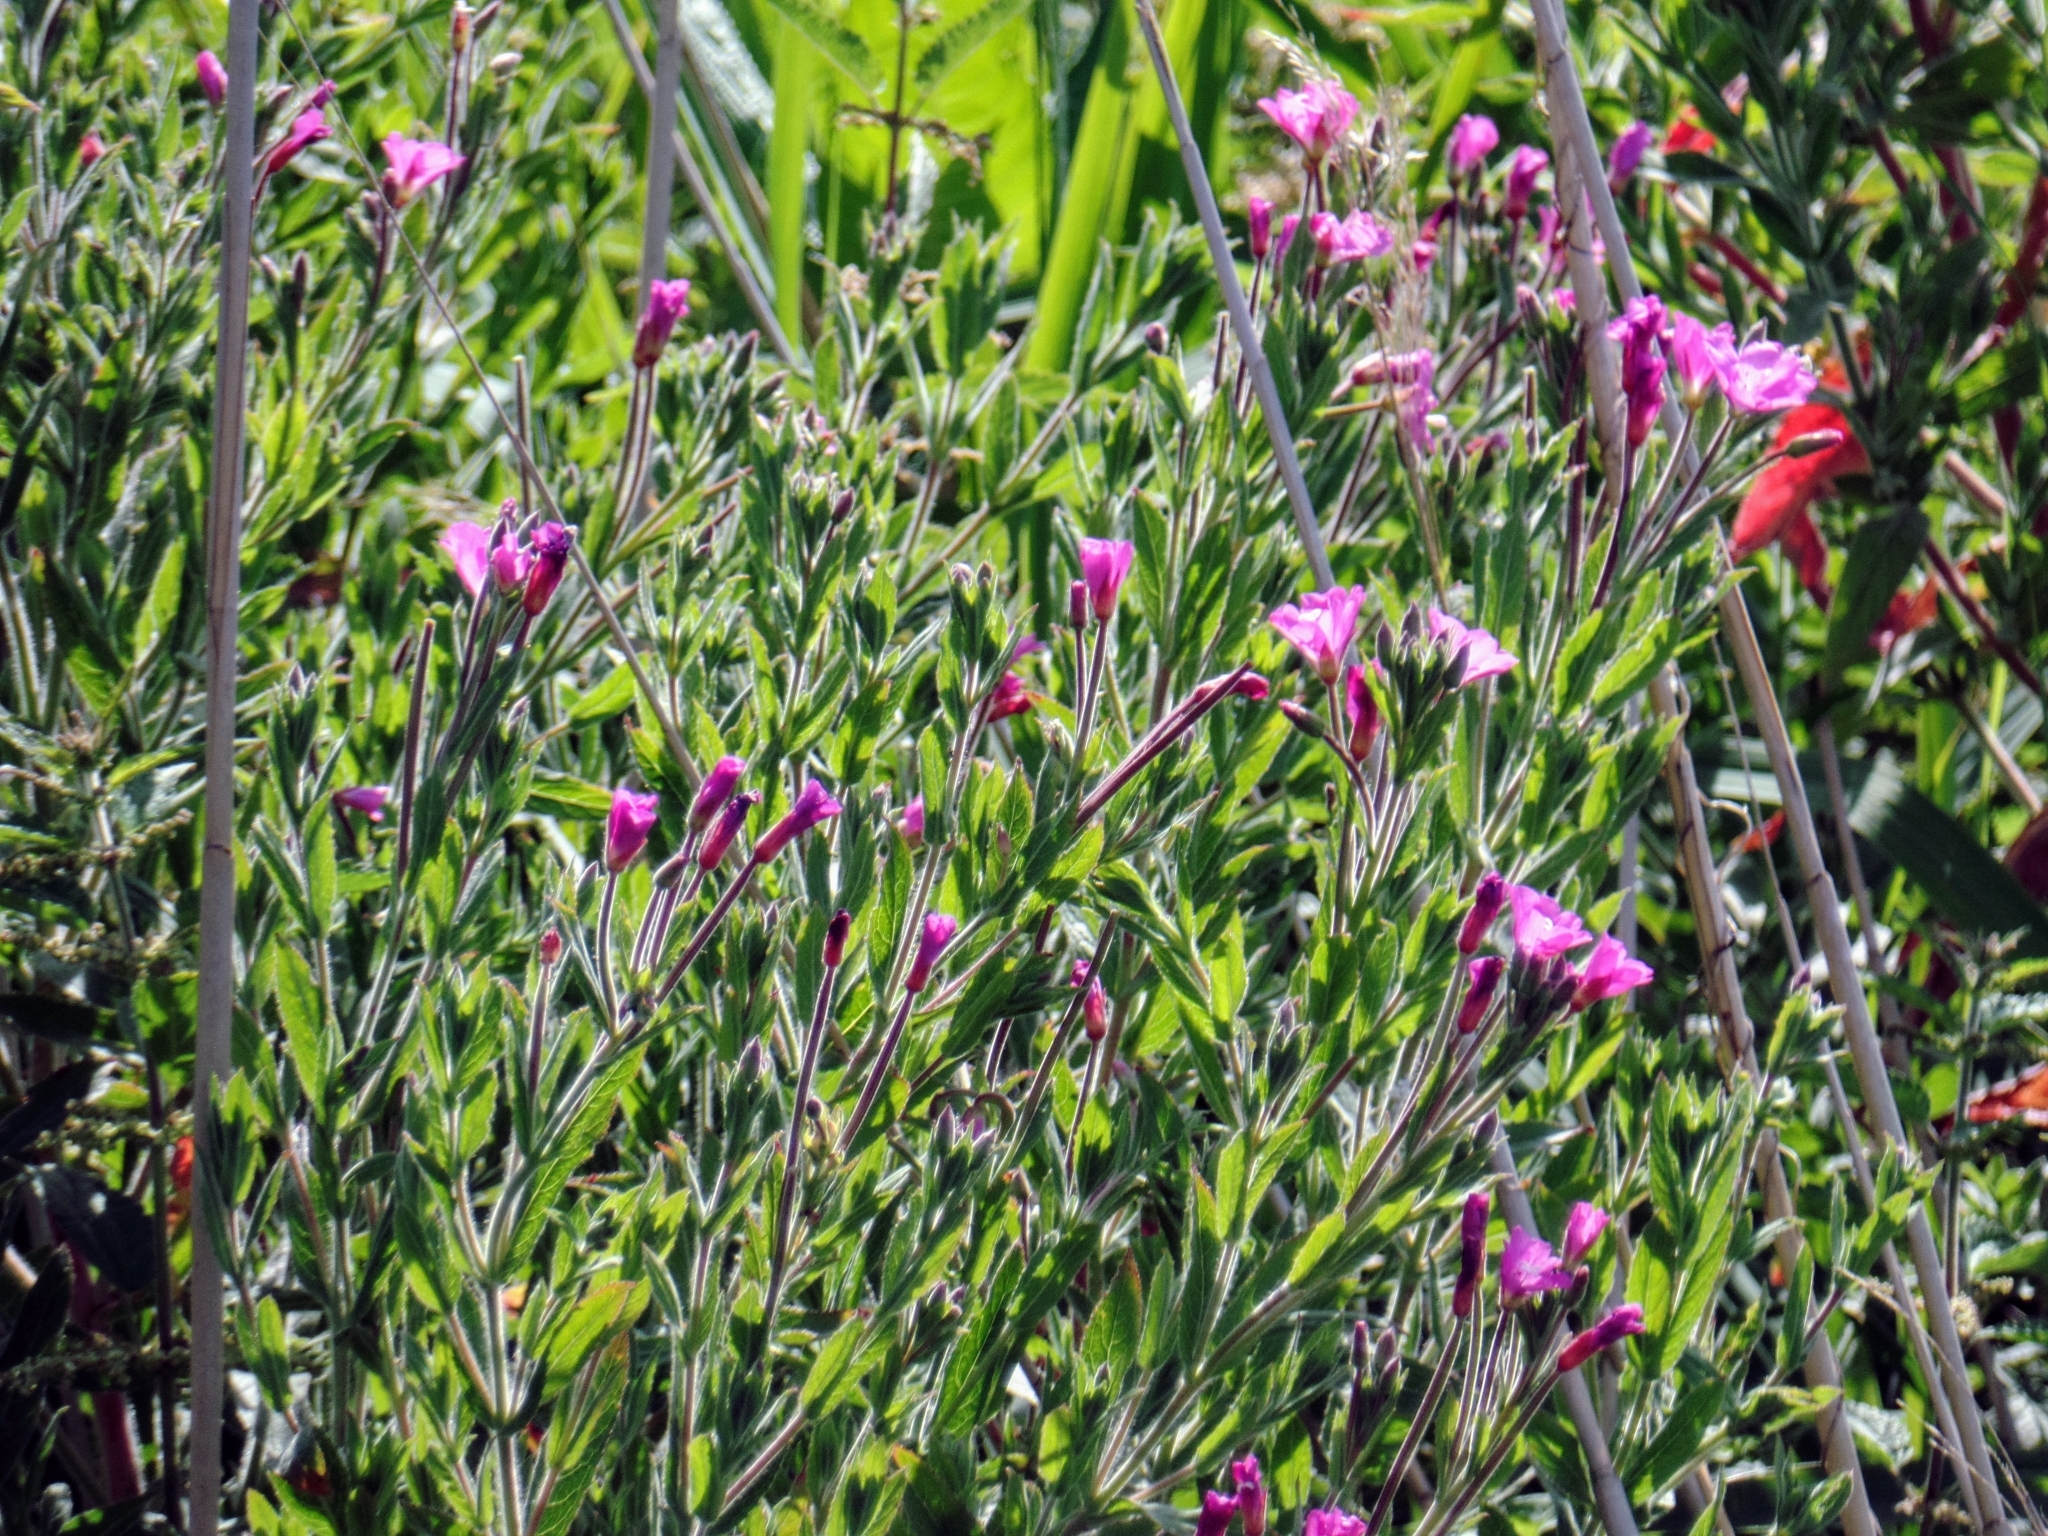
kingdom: Plantae
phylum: Tracheophyta
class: Magnoliopsida
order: Myrtales
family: Onagraceae
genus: Epilobium
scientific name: Epilobium hirsutum
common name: Great willowherb
